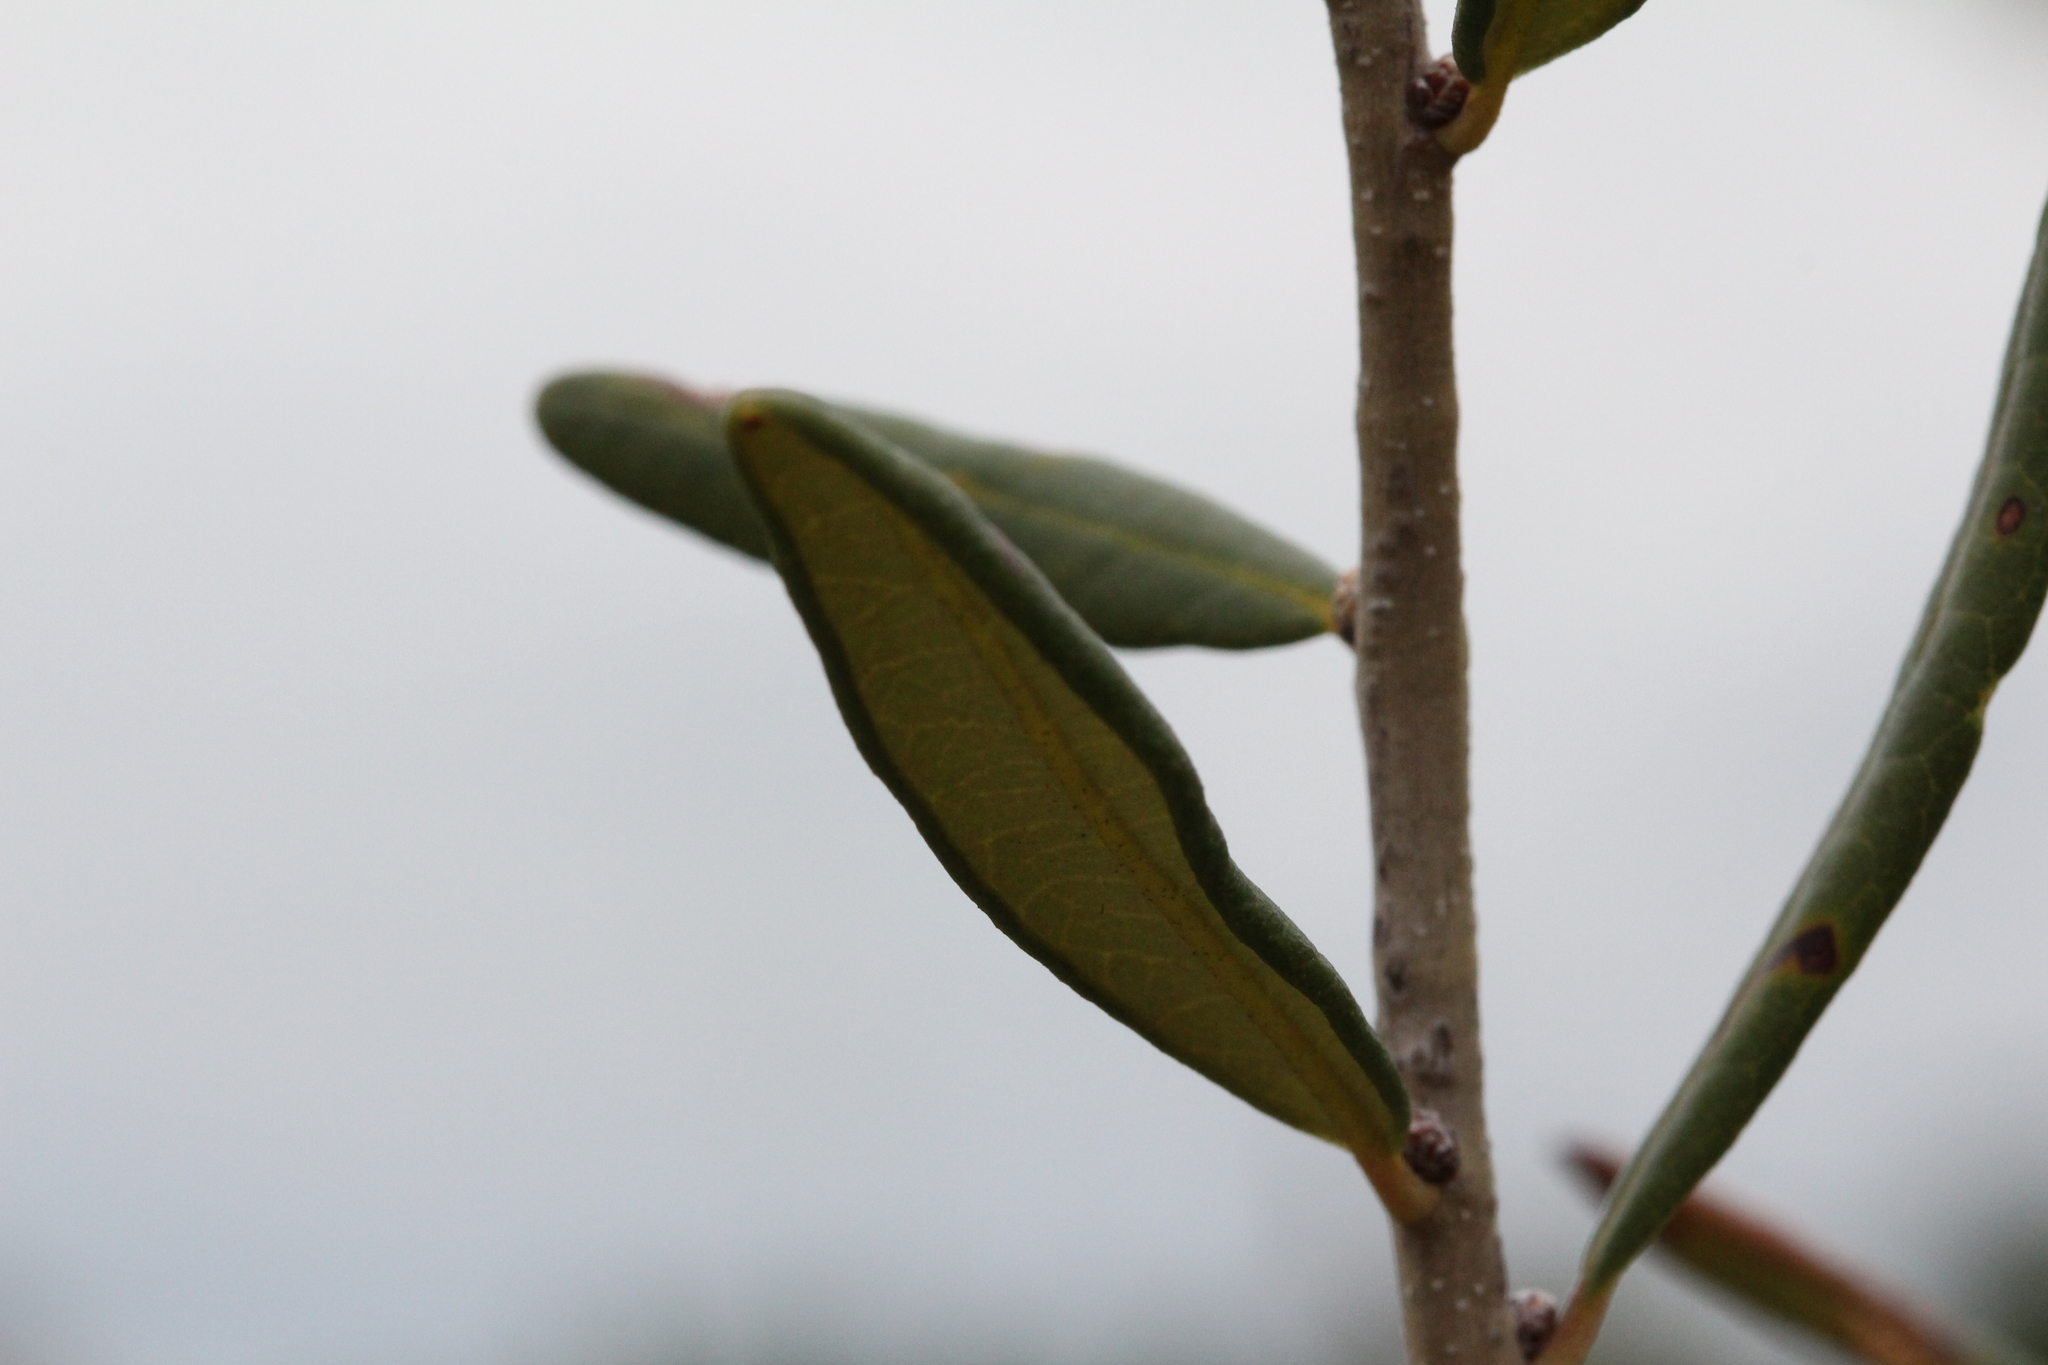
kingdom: Plantae
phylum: Tracheophyta
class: Magnoliopsida
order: Fagales
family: Fagaceae
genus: Quercus
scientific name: Quercus geminata
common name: Sand live oak
